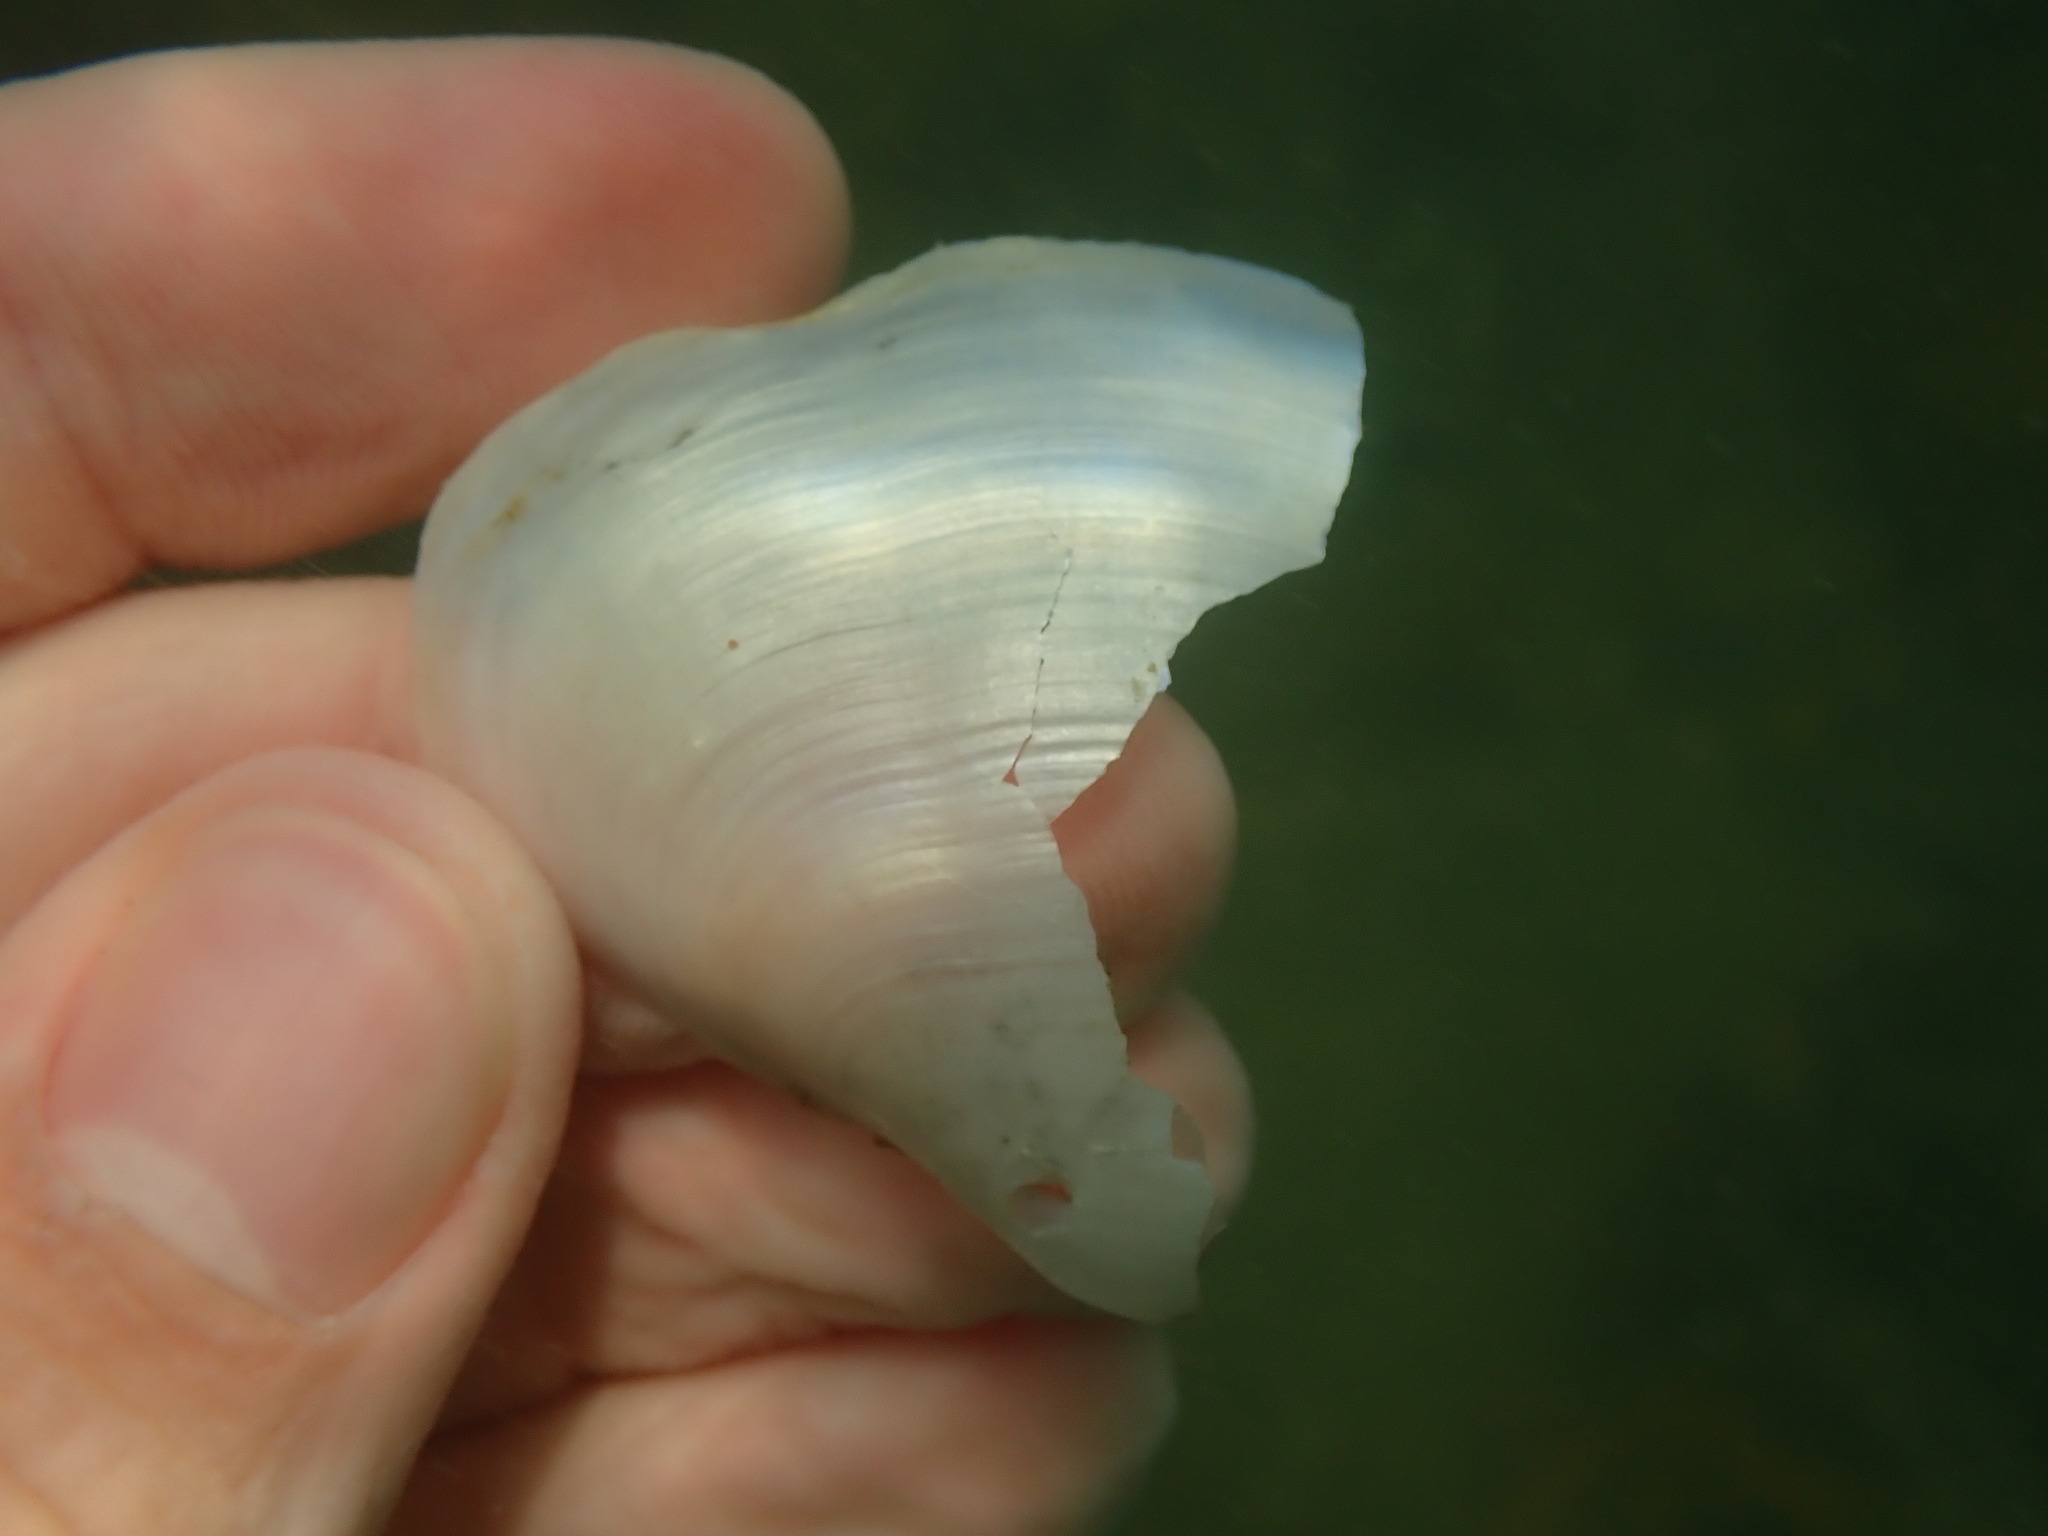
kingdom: Animalia
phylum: Mollusca
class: Bivalvia
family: Periplomatidae
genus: Offadesma
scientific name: Offadesma angasi
